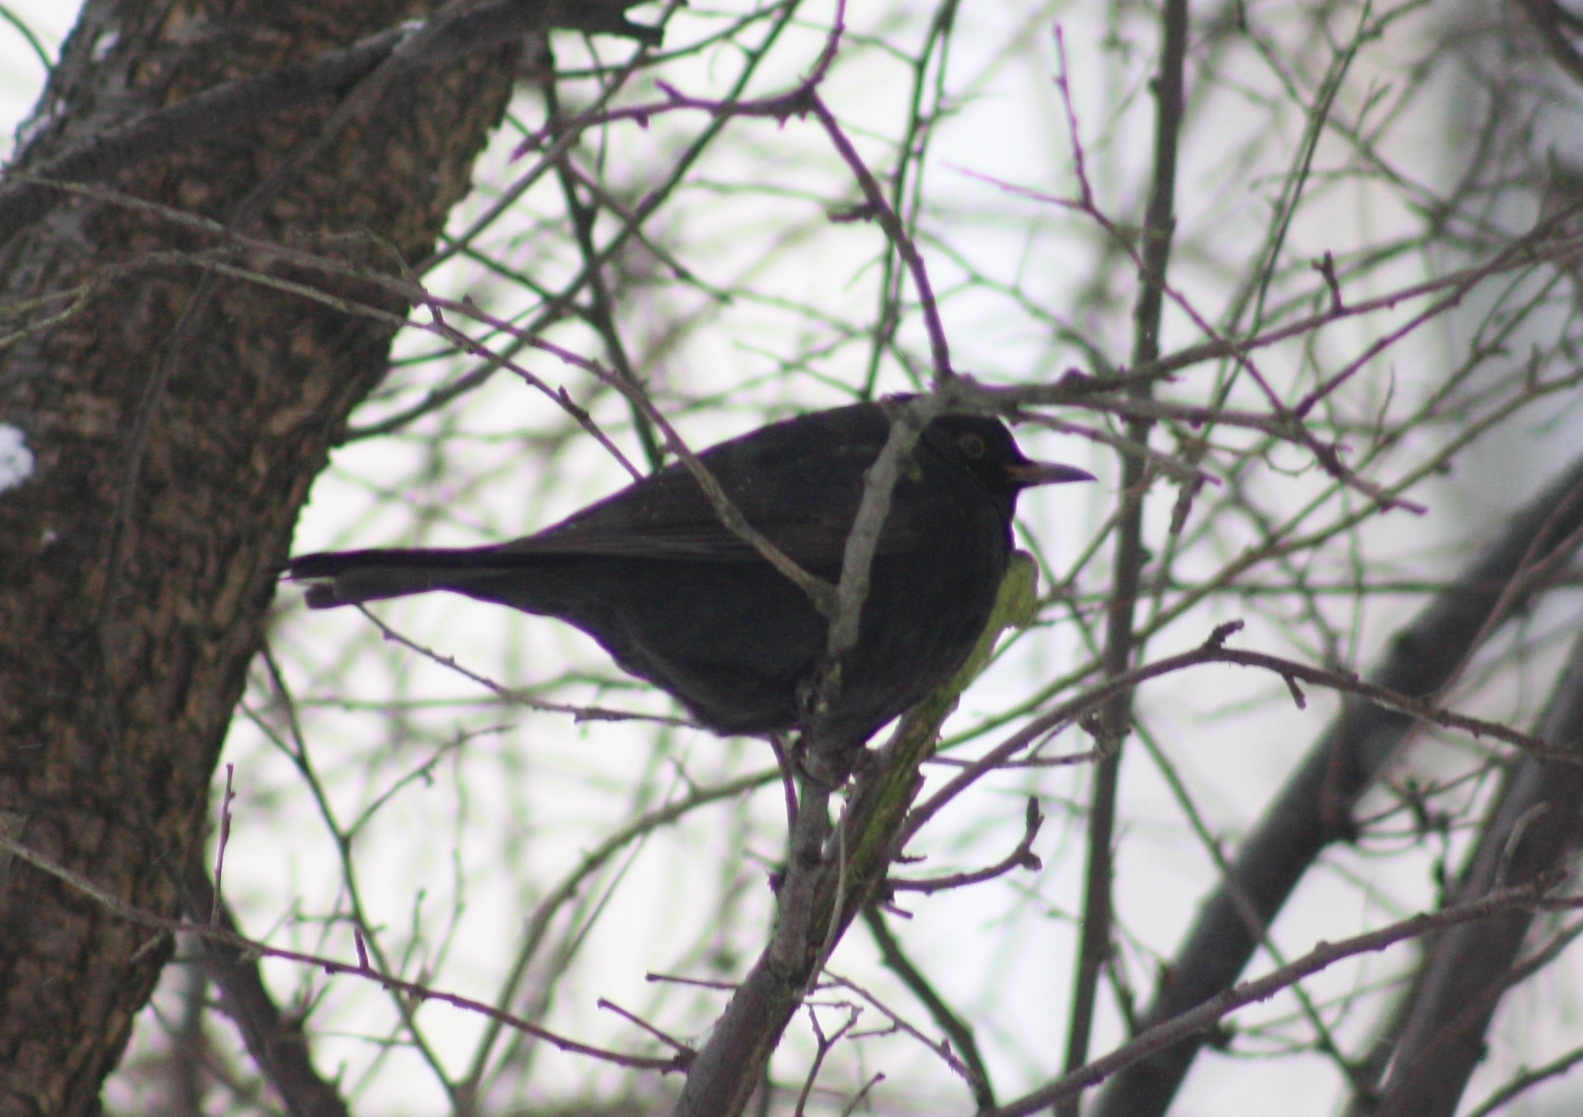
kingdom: Animalia
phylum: Chordata
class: Aves
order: Passeriformes
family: Turdidae
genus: Turdus
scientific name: Turdus merula
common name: Common blackbird
